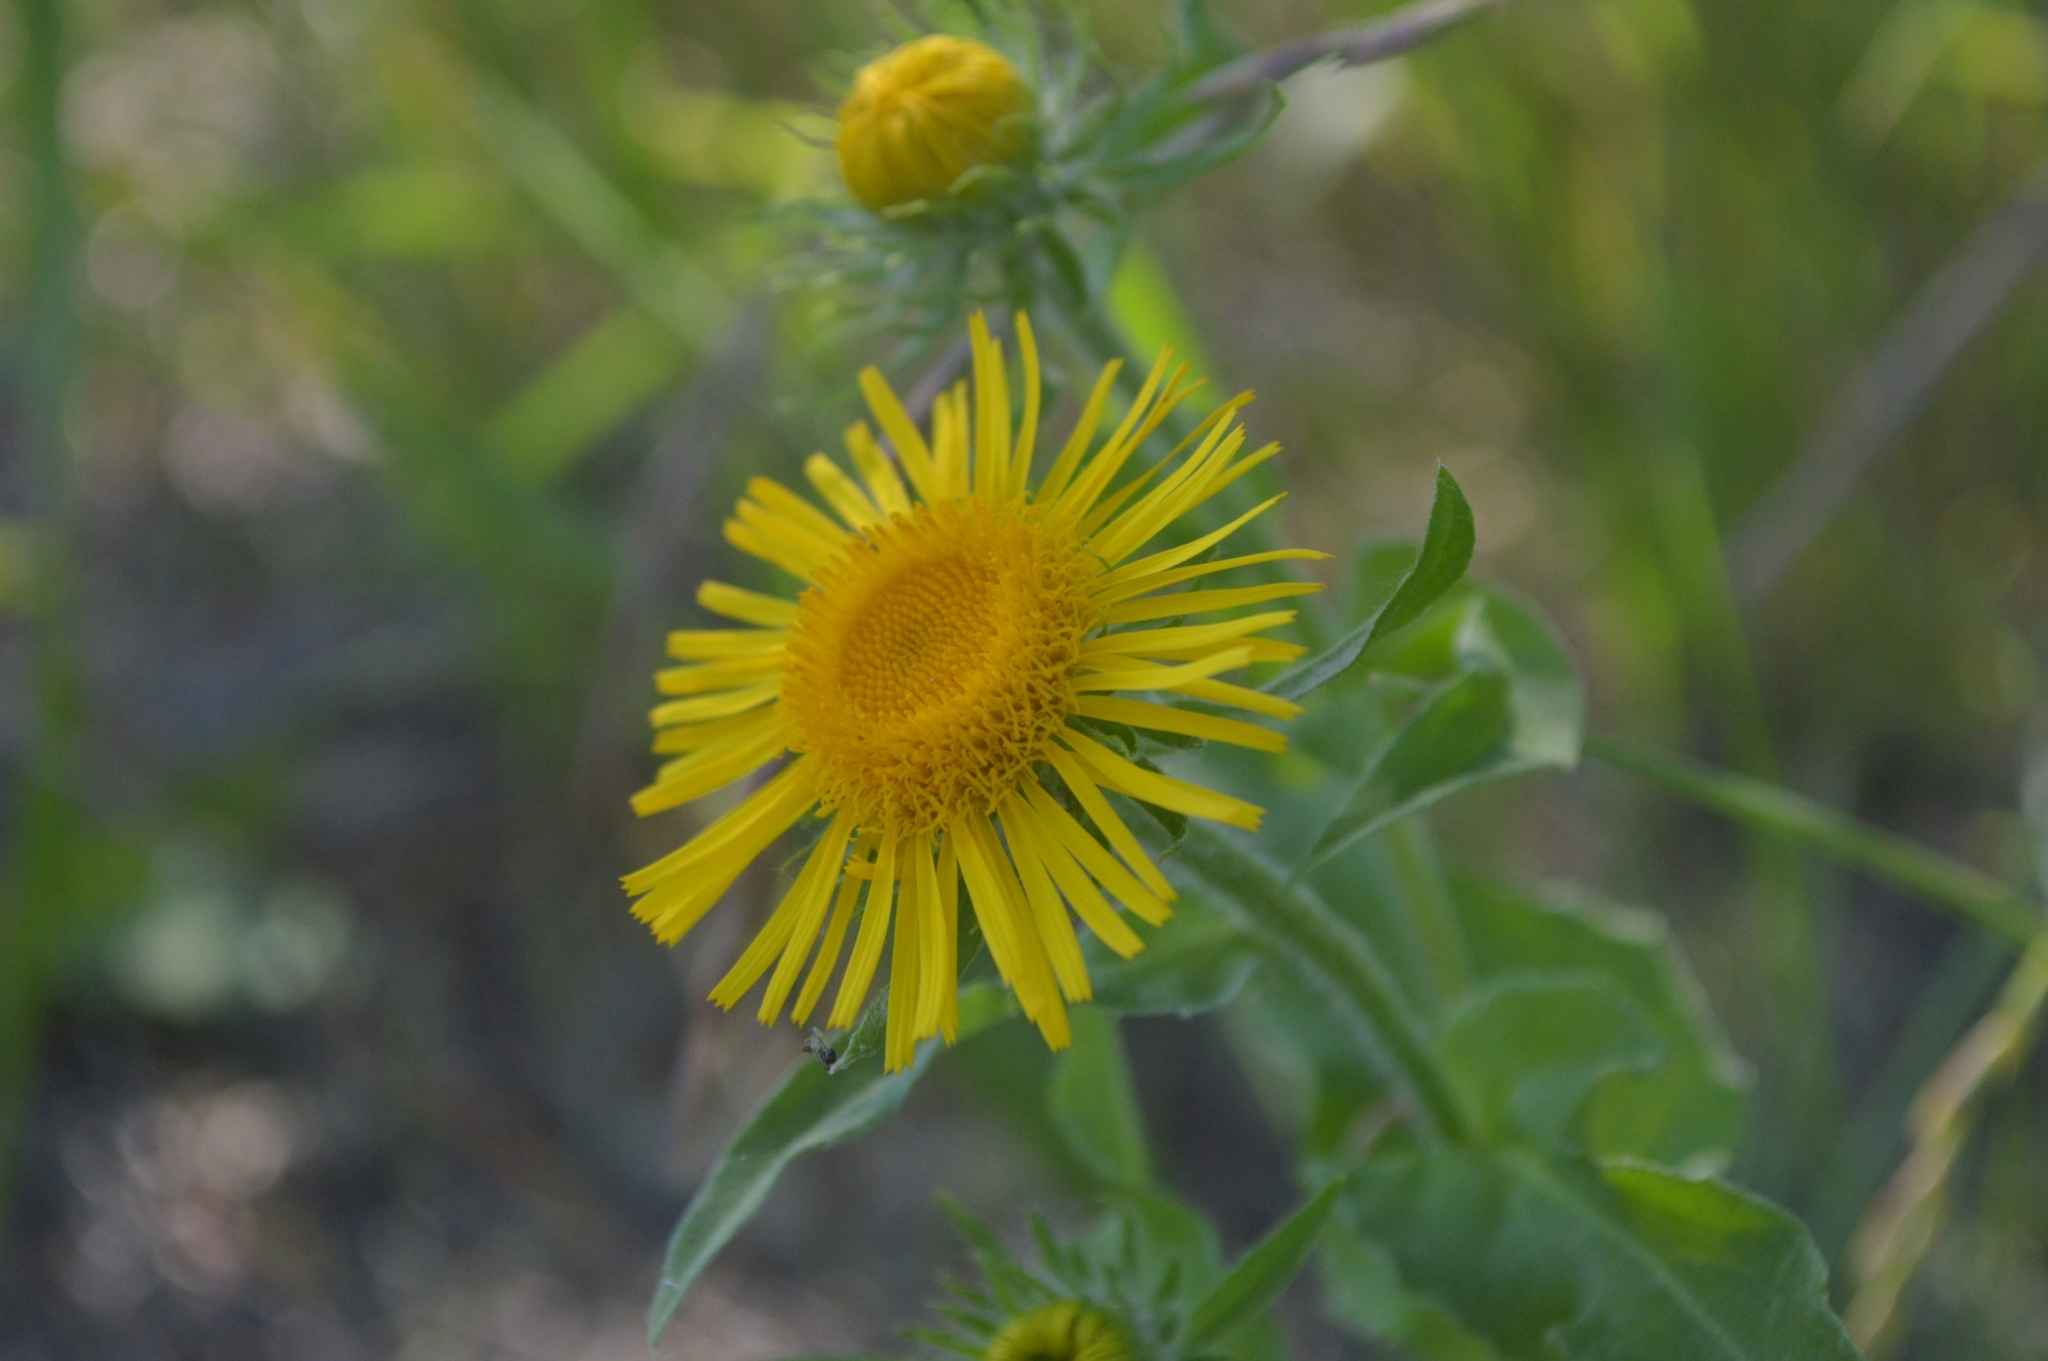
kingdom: Plantae
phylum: Tracheophyta
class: Magnoliopsida
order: Asterales
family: Asteraceae
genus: Pentanema
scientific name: Pentanema britannicum
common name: British elecampane
